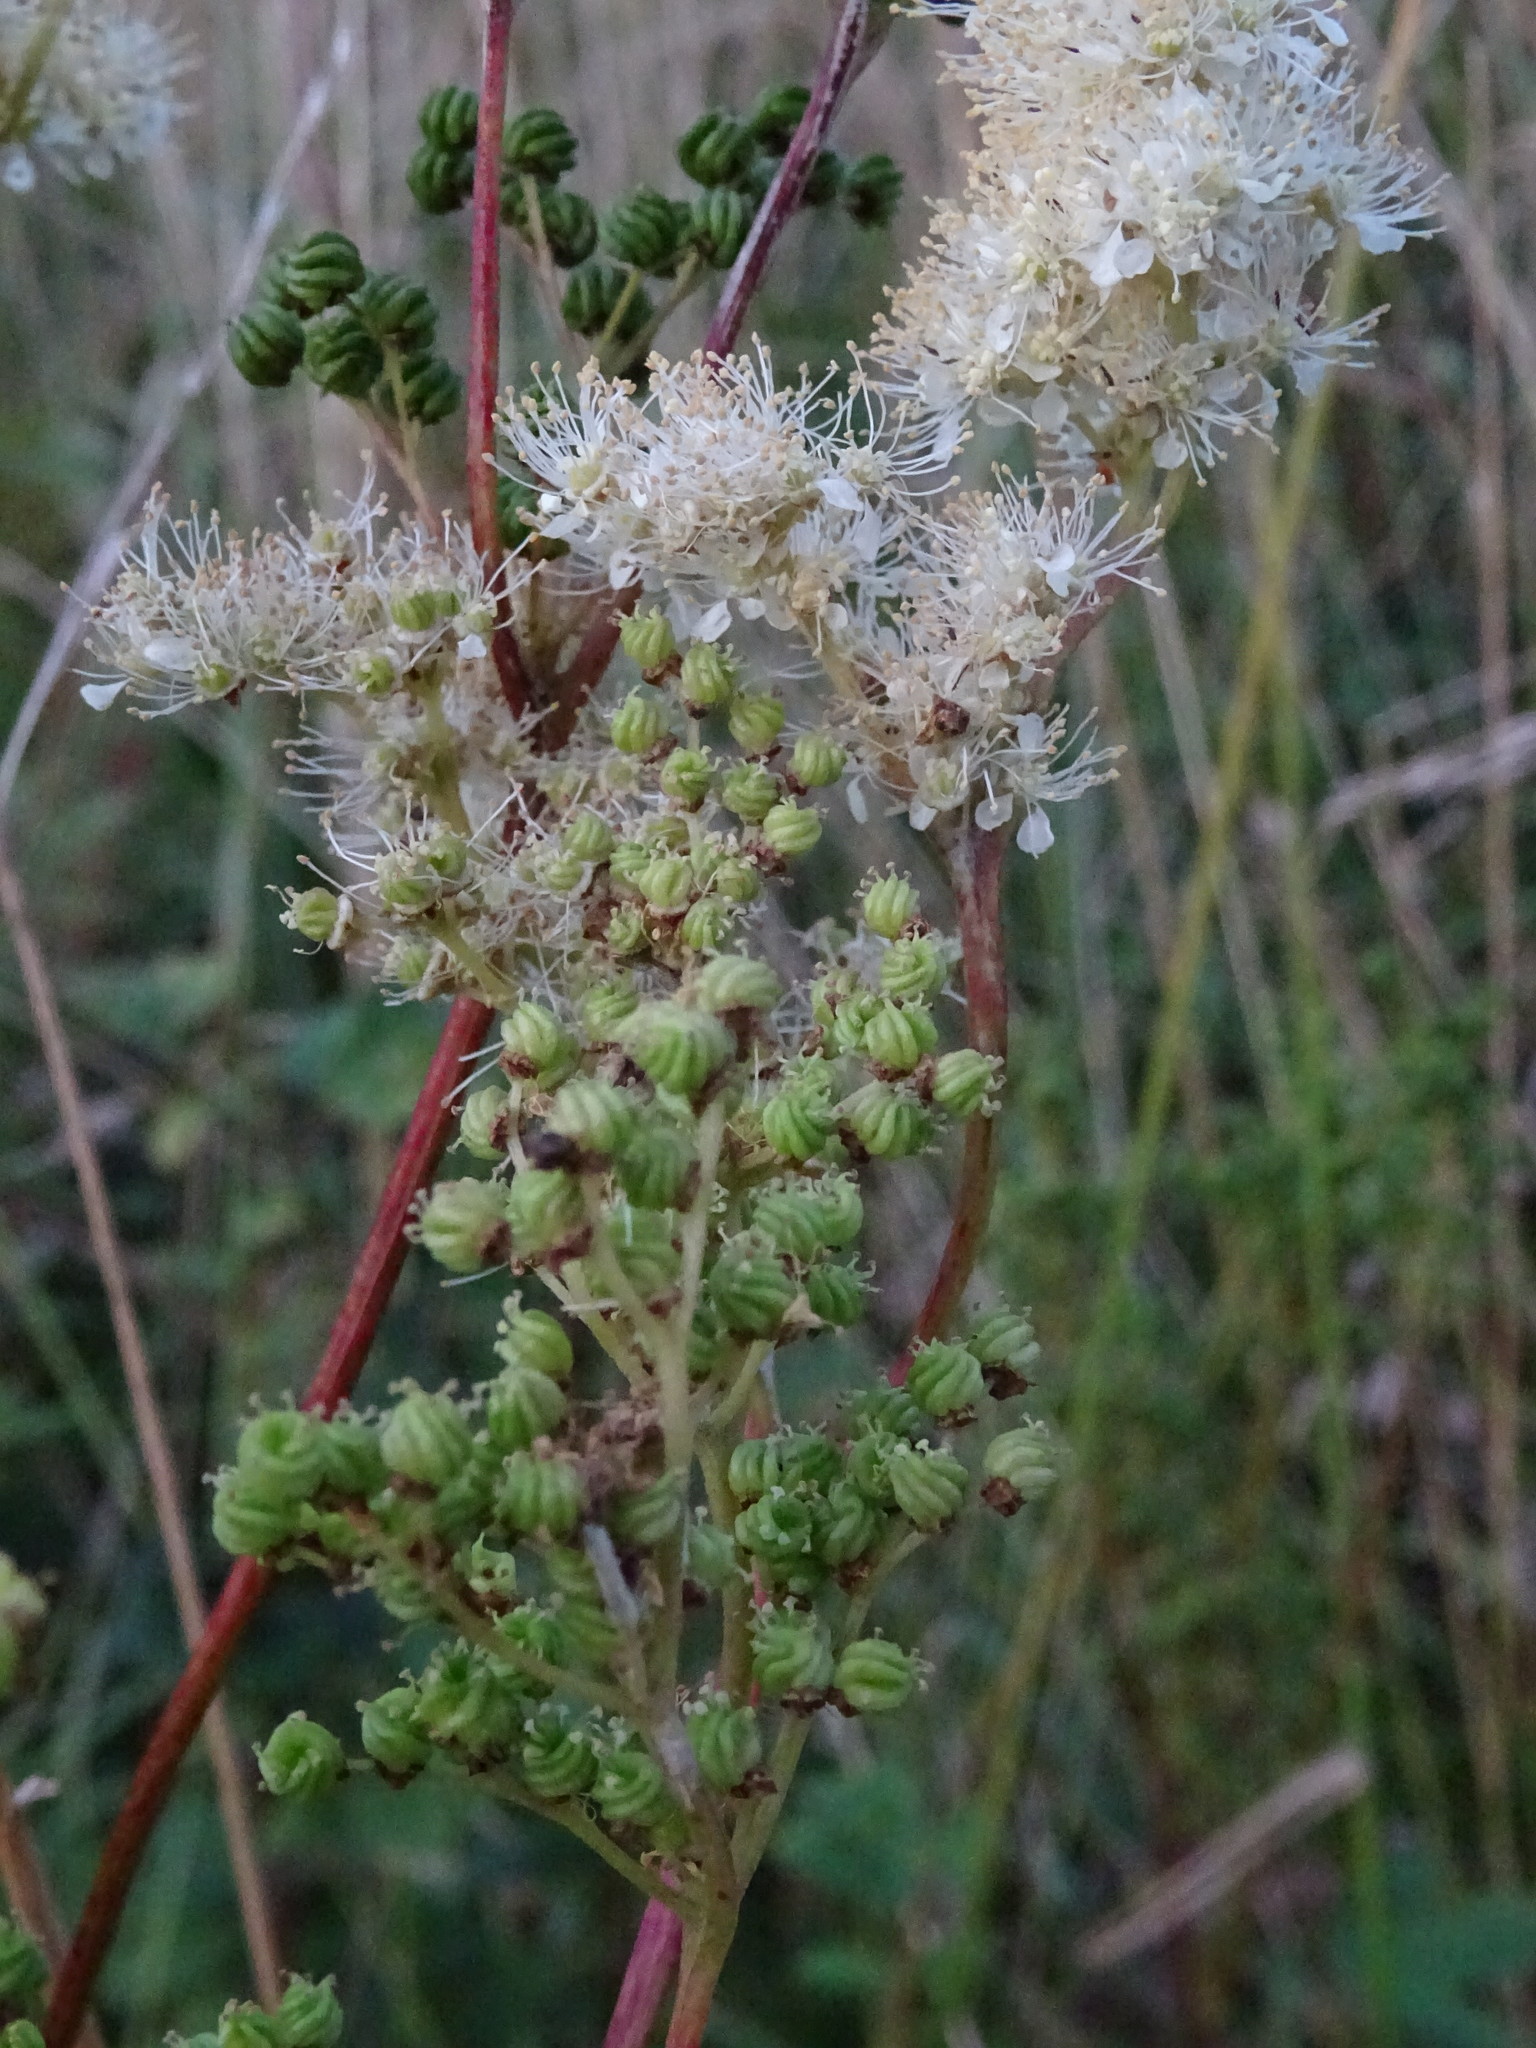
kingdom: Plantae
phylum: Tracheophyta
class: Magnoliopsida
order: Rosales
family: Rosaceae
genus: Filipendula
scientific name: Filipendula ulmaria
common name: Meadowsweet
